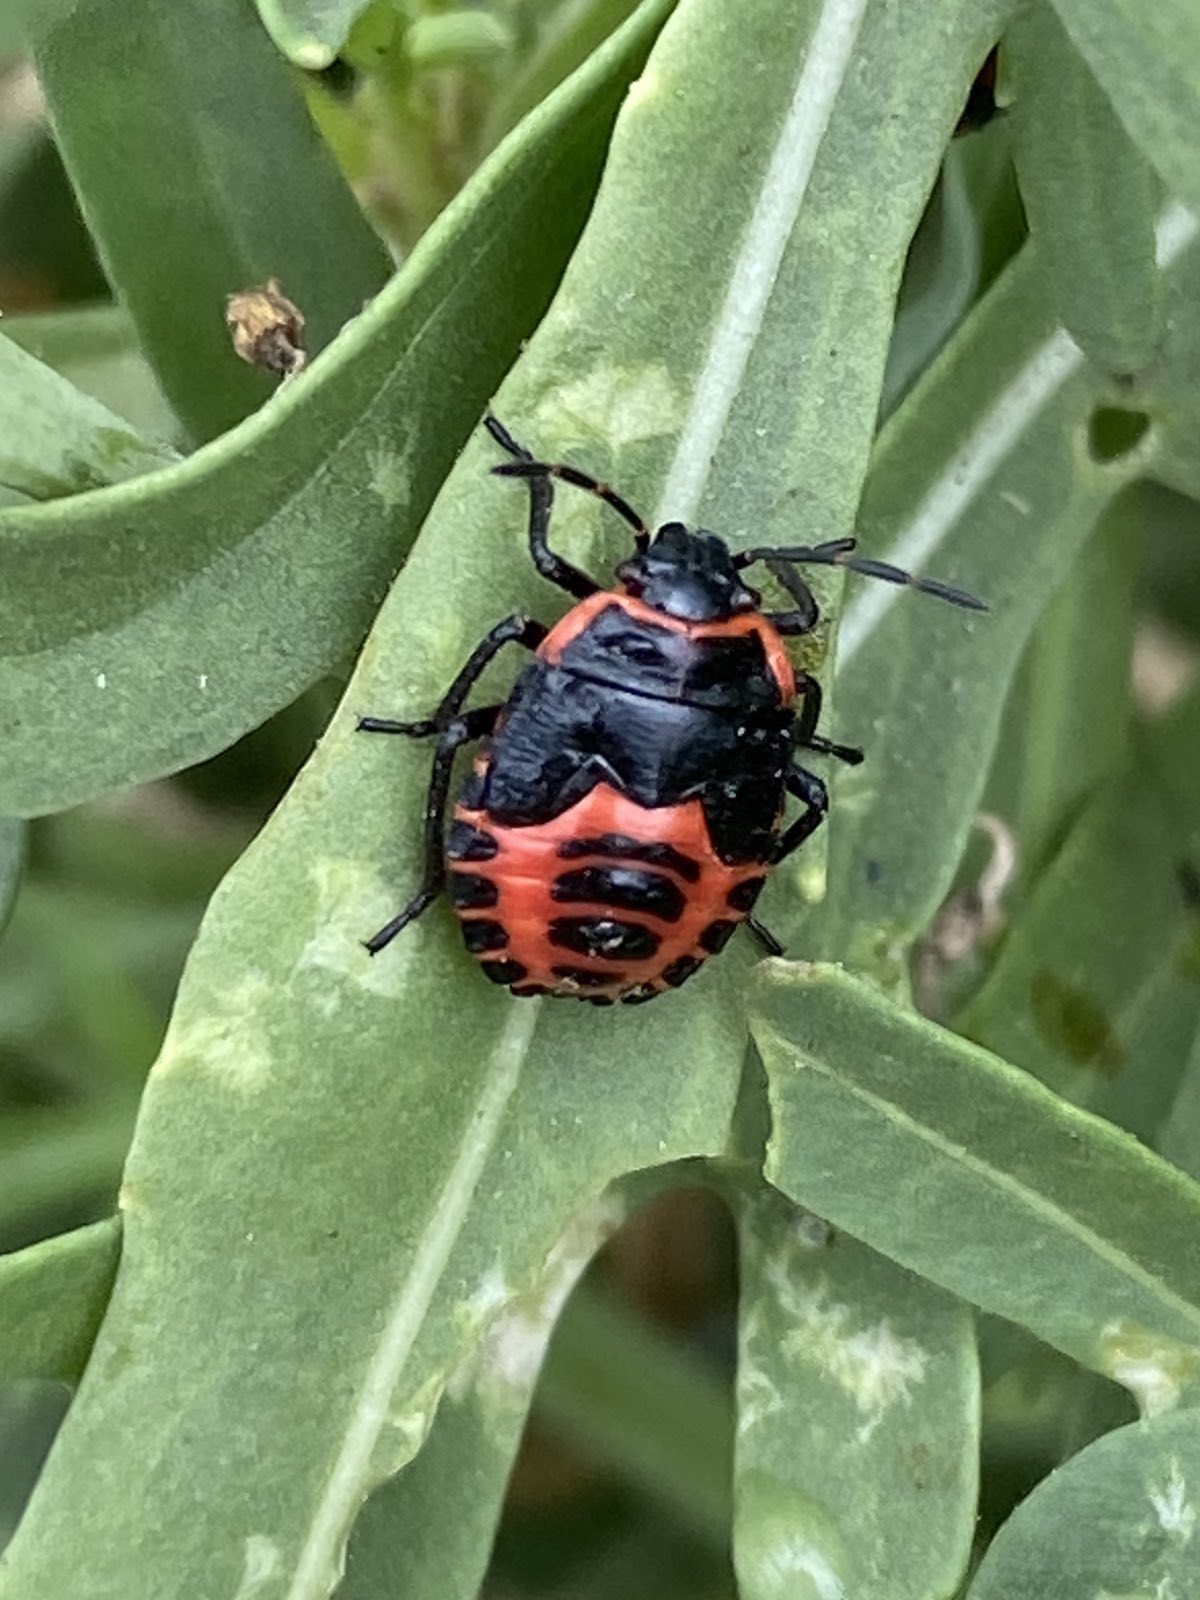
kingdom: Animalia
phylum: Arthropoda
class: Insecta
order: Hemiptera
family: Pentatomidae
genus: Eurydema
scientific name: Eurydema spectabilis
